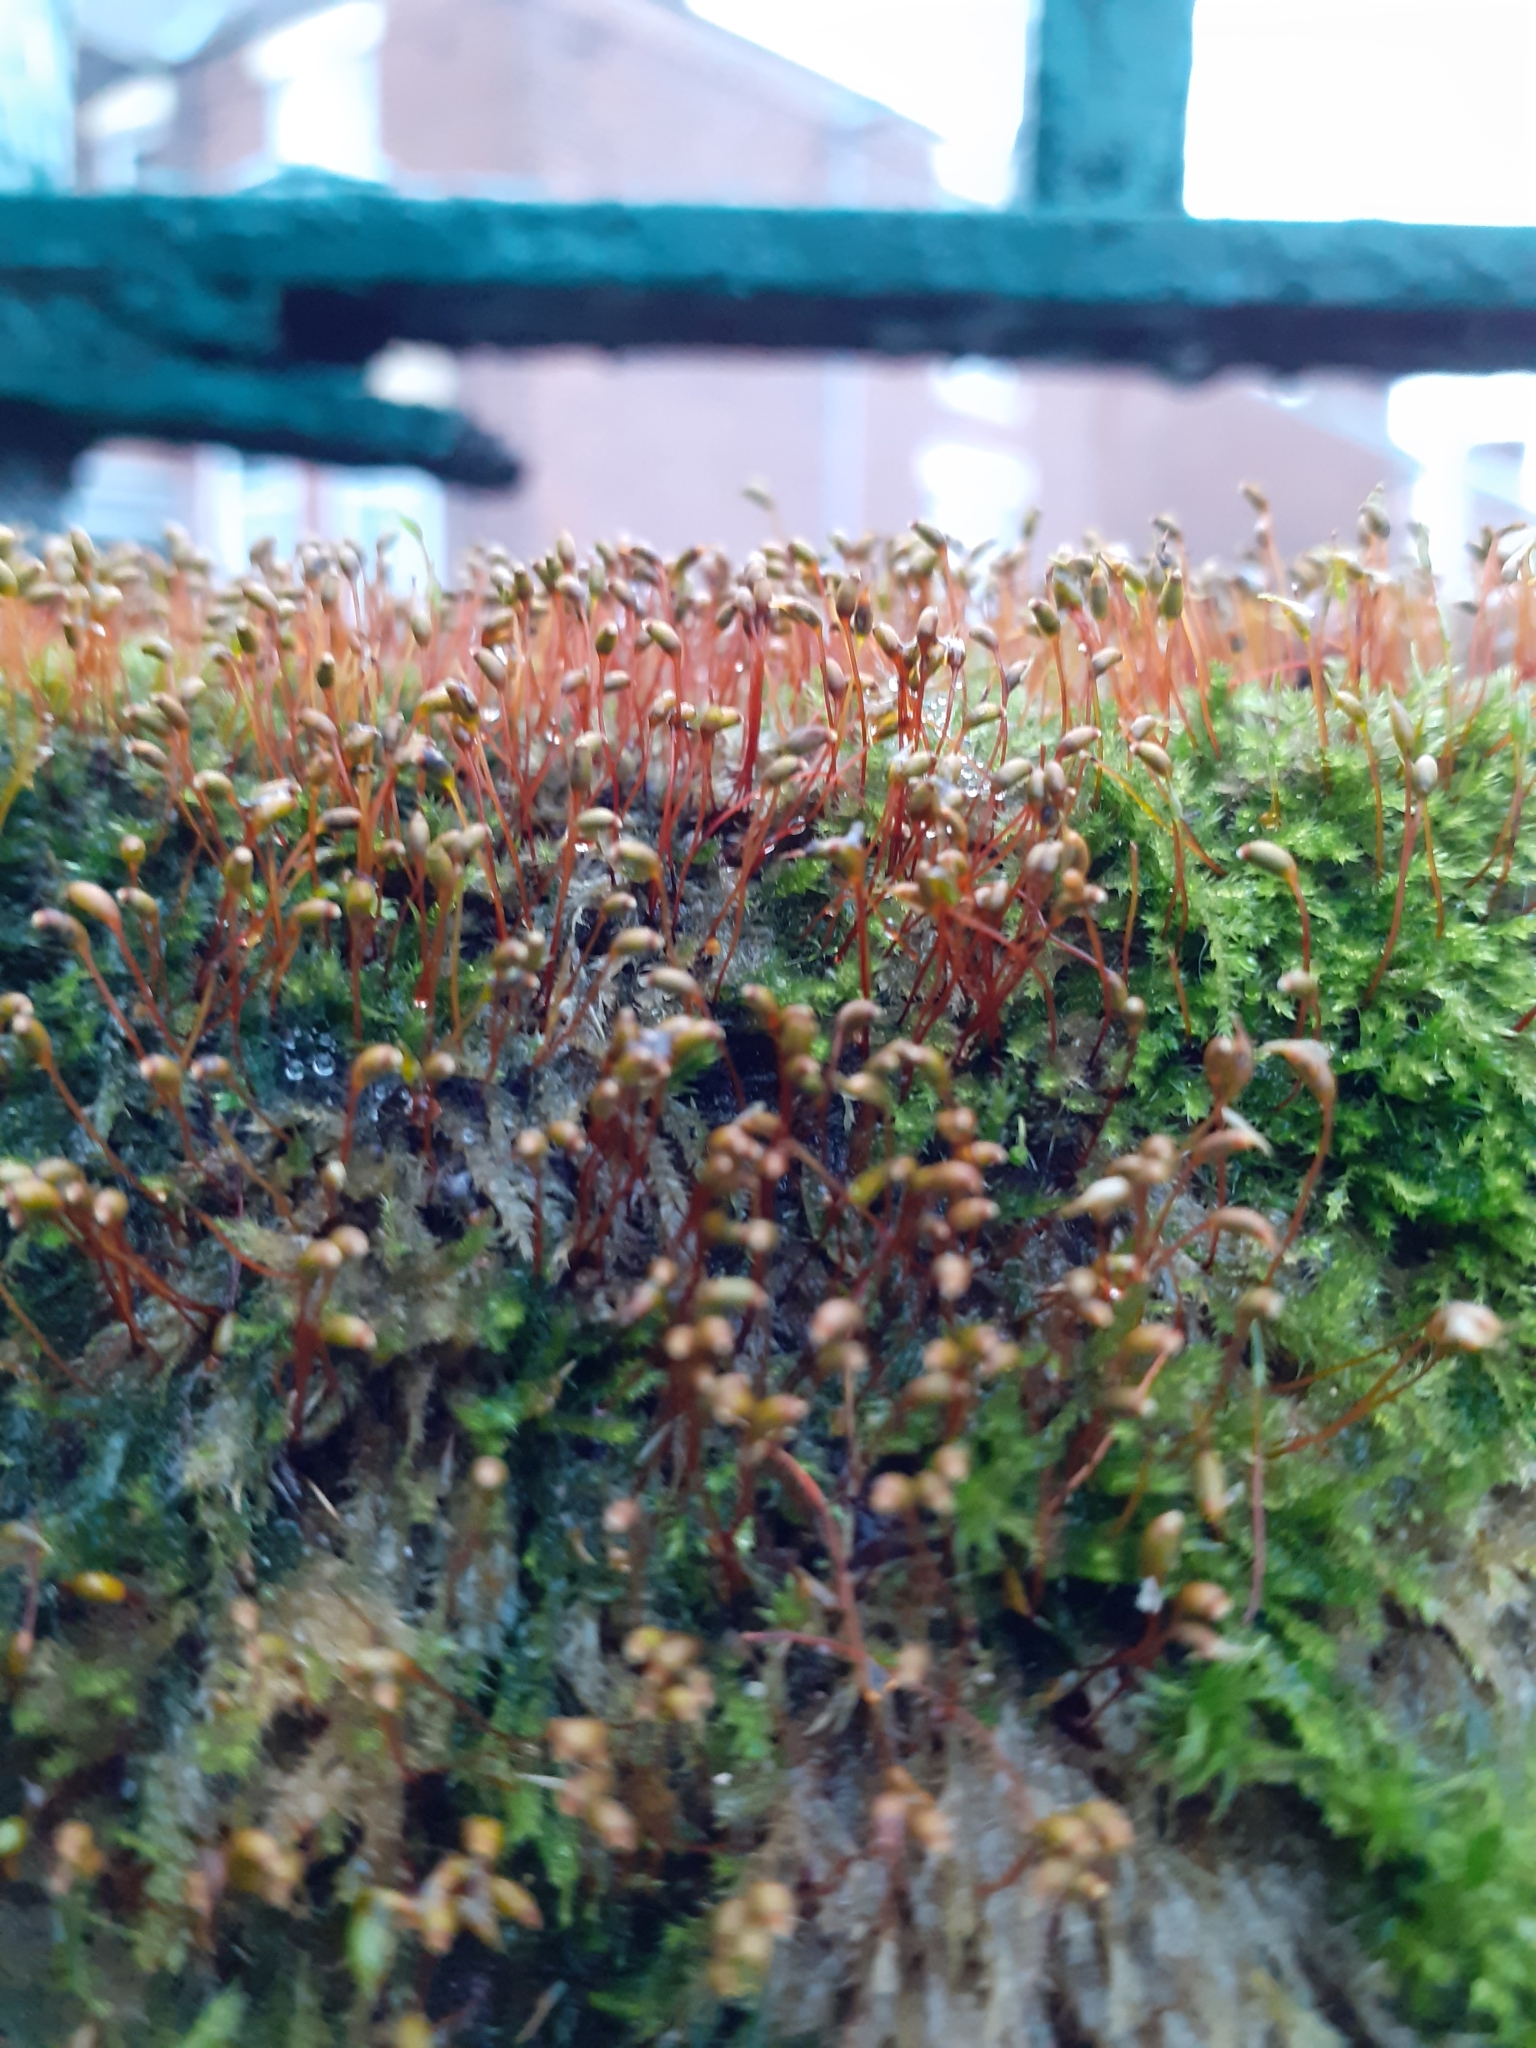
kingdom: Plantae
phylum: Bryophyta
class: Bryopsida
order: Hypnales
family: Brachytheciaceae
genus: Rhynchostegium
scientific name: Rhynchostegium confertum
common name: Clustered feather-moss
